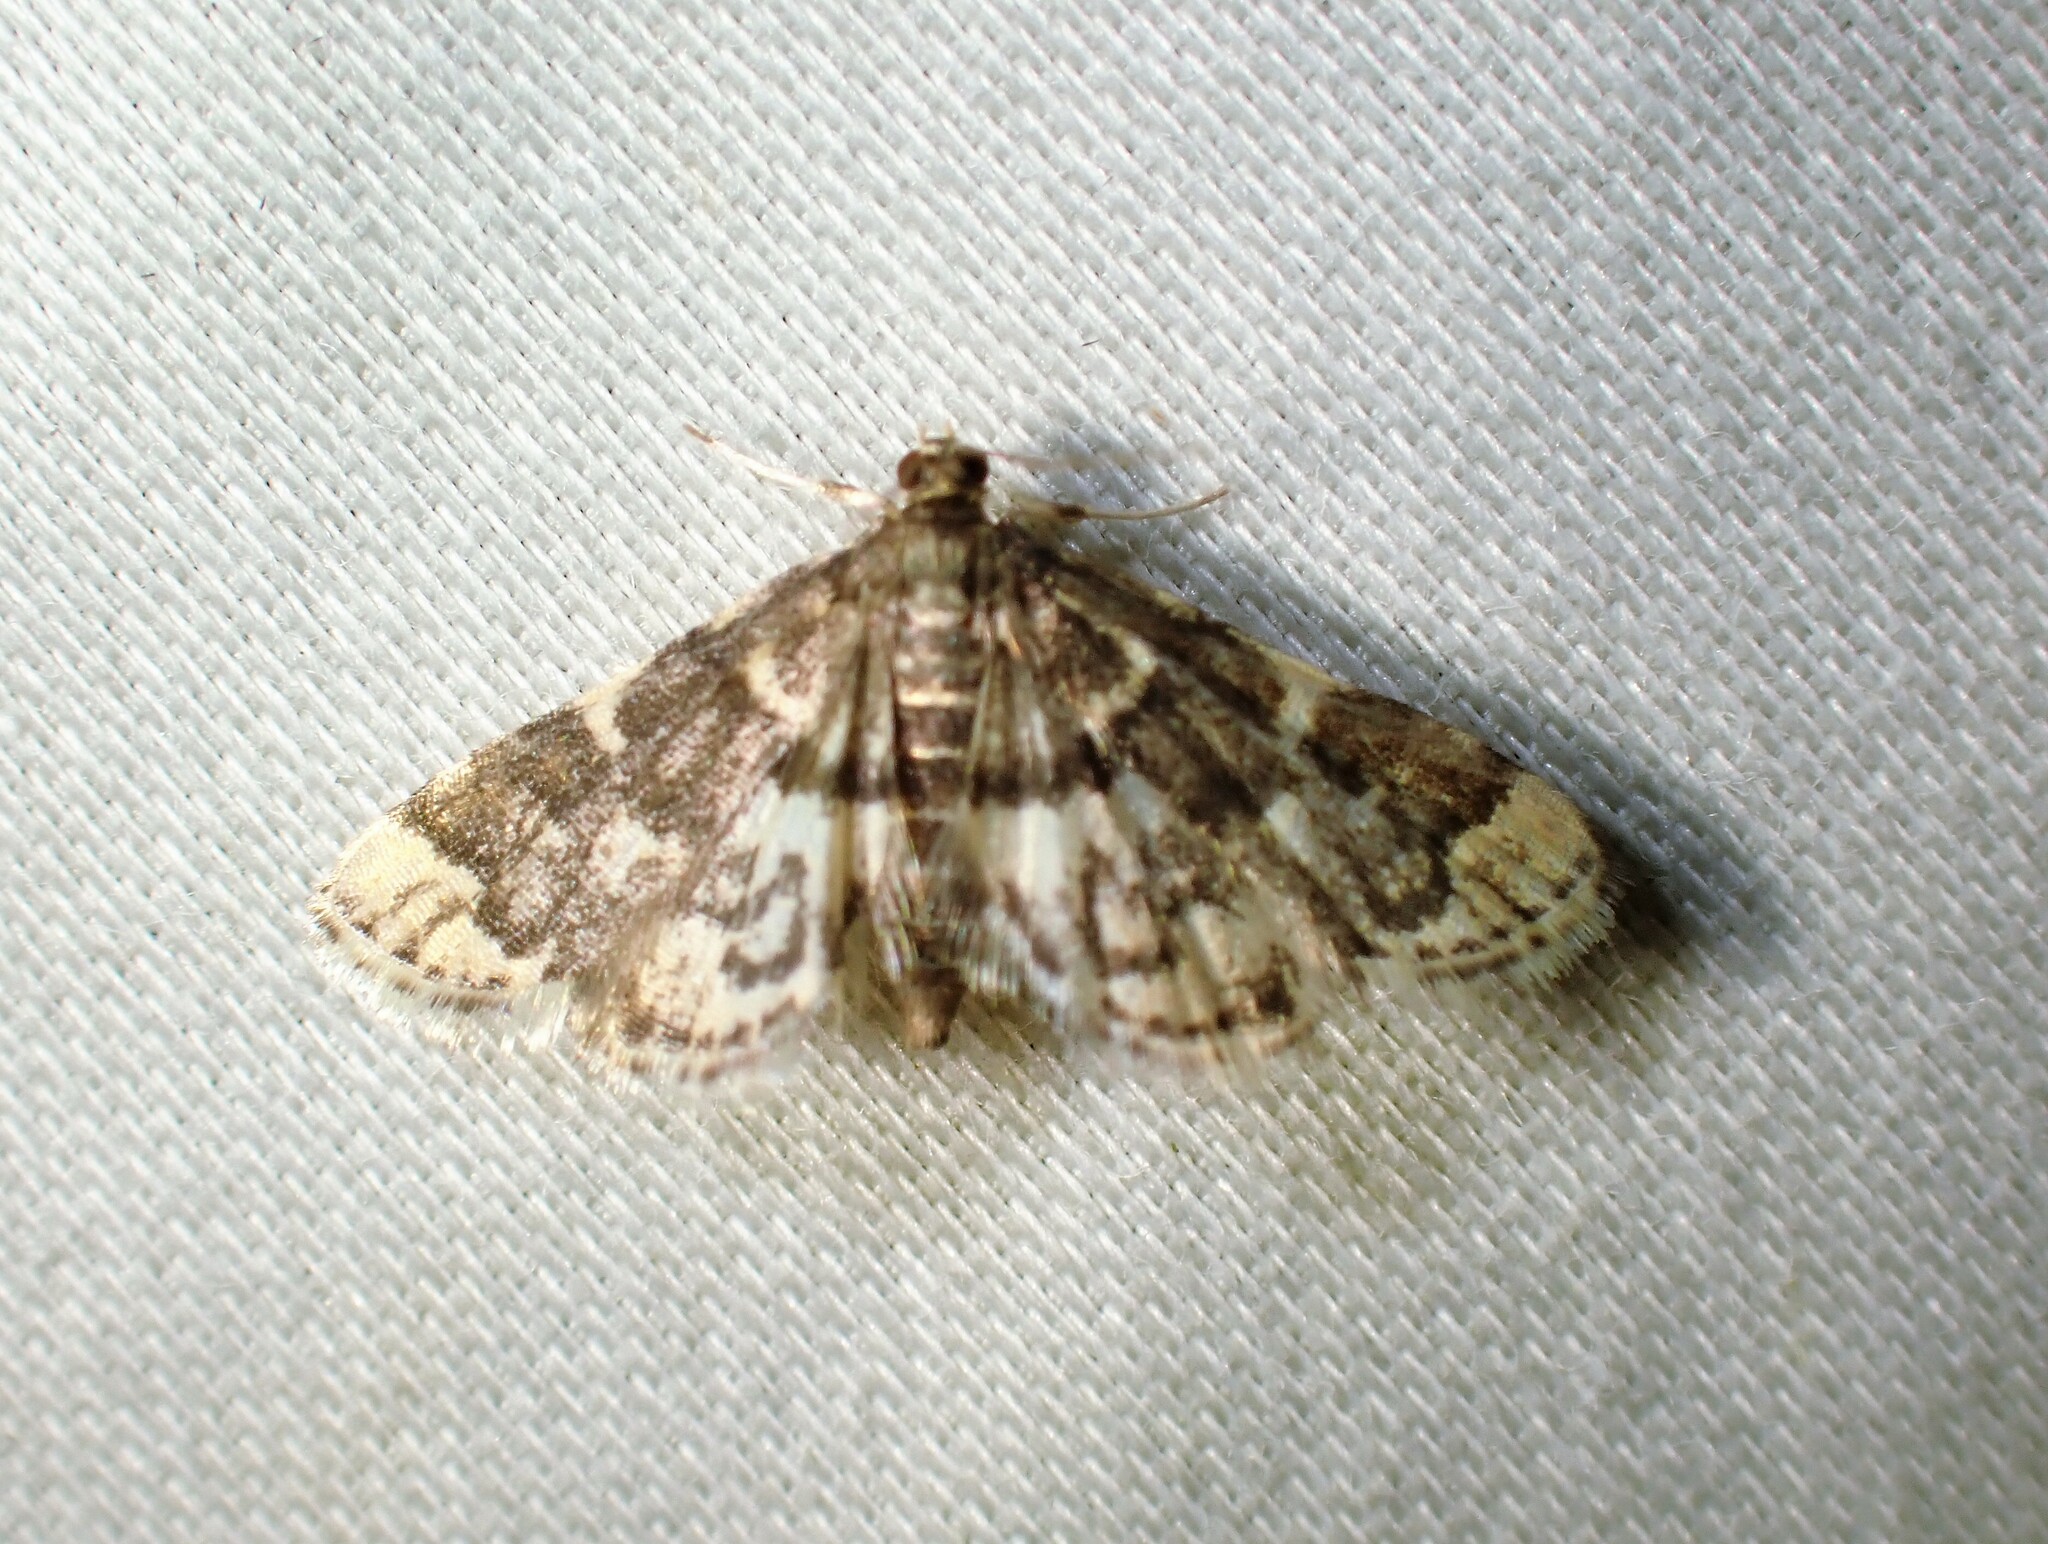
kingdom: Animalia
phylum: Arthropoda
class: Insecta
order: Lepidoptera
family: Crambidae
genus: Anageshna
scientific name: Anageshna primordialis
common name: Yellow-spotted webworm moth
